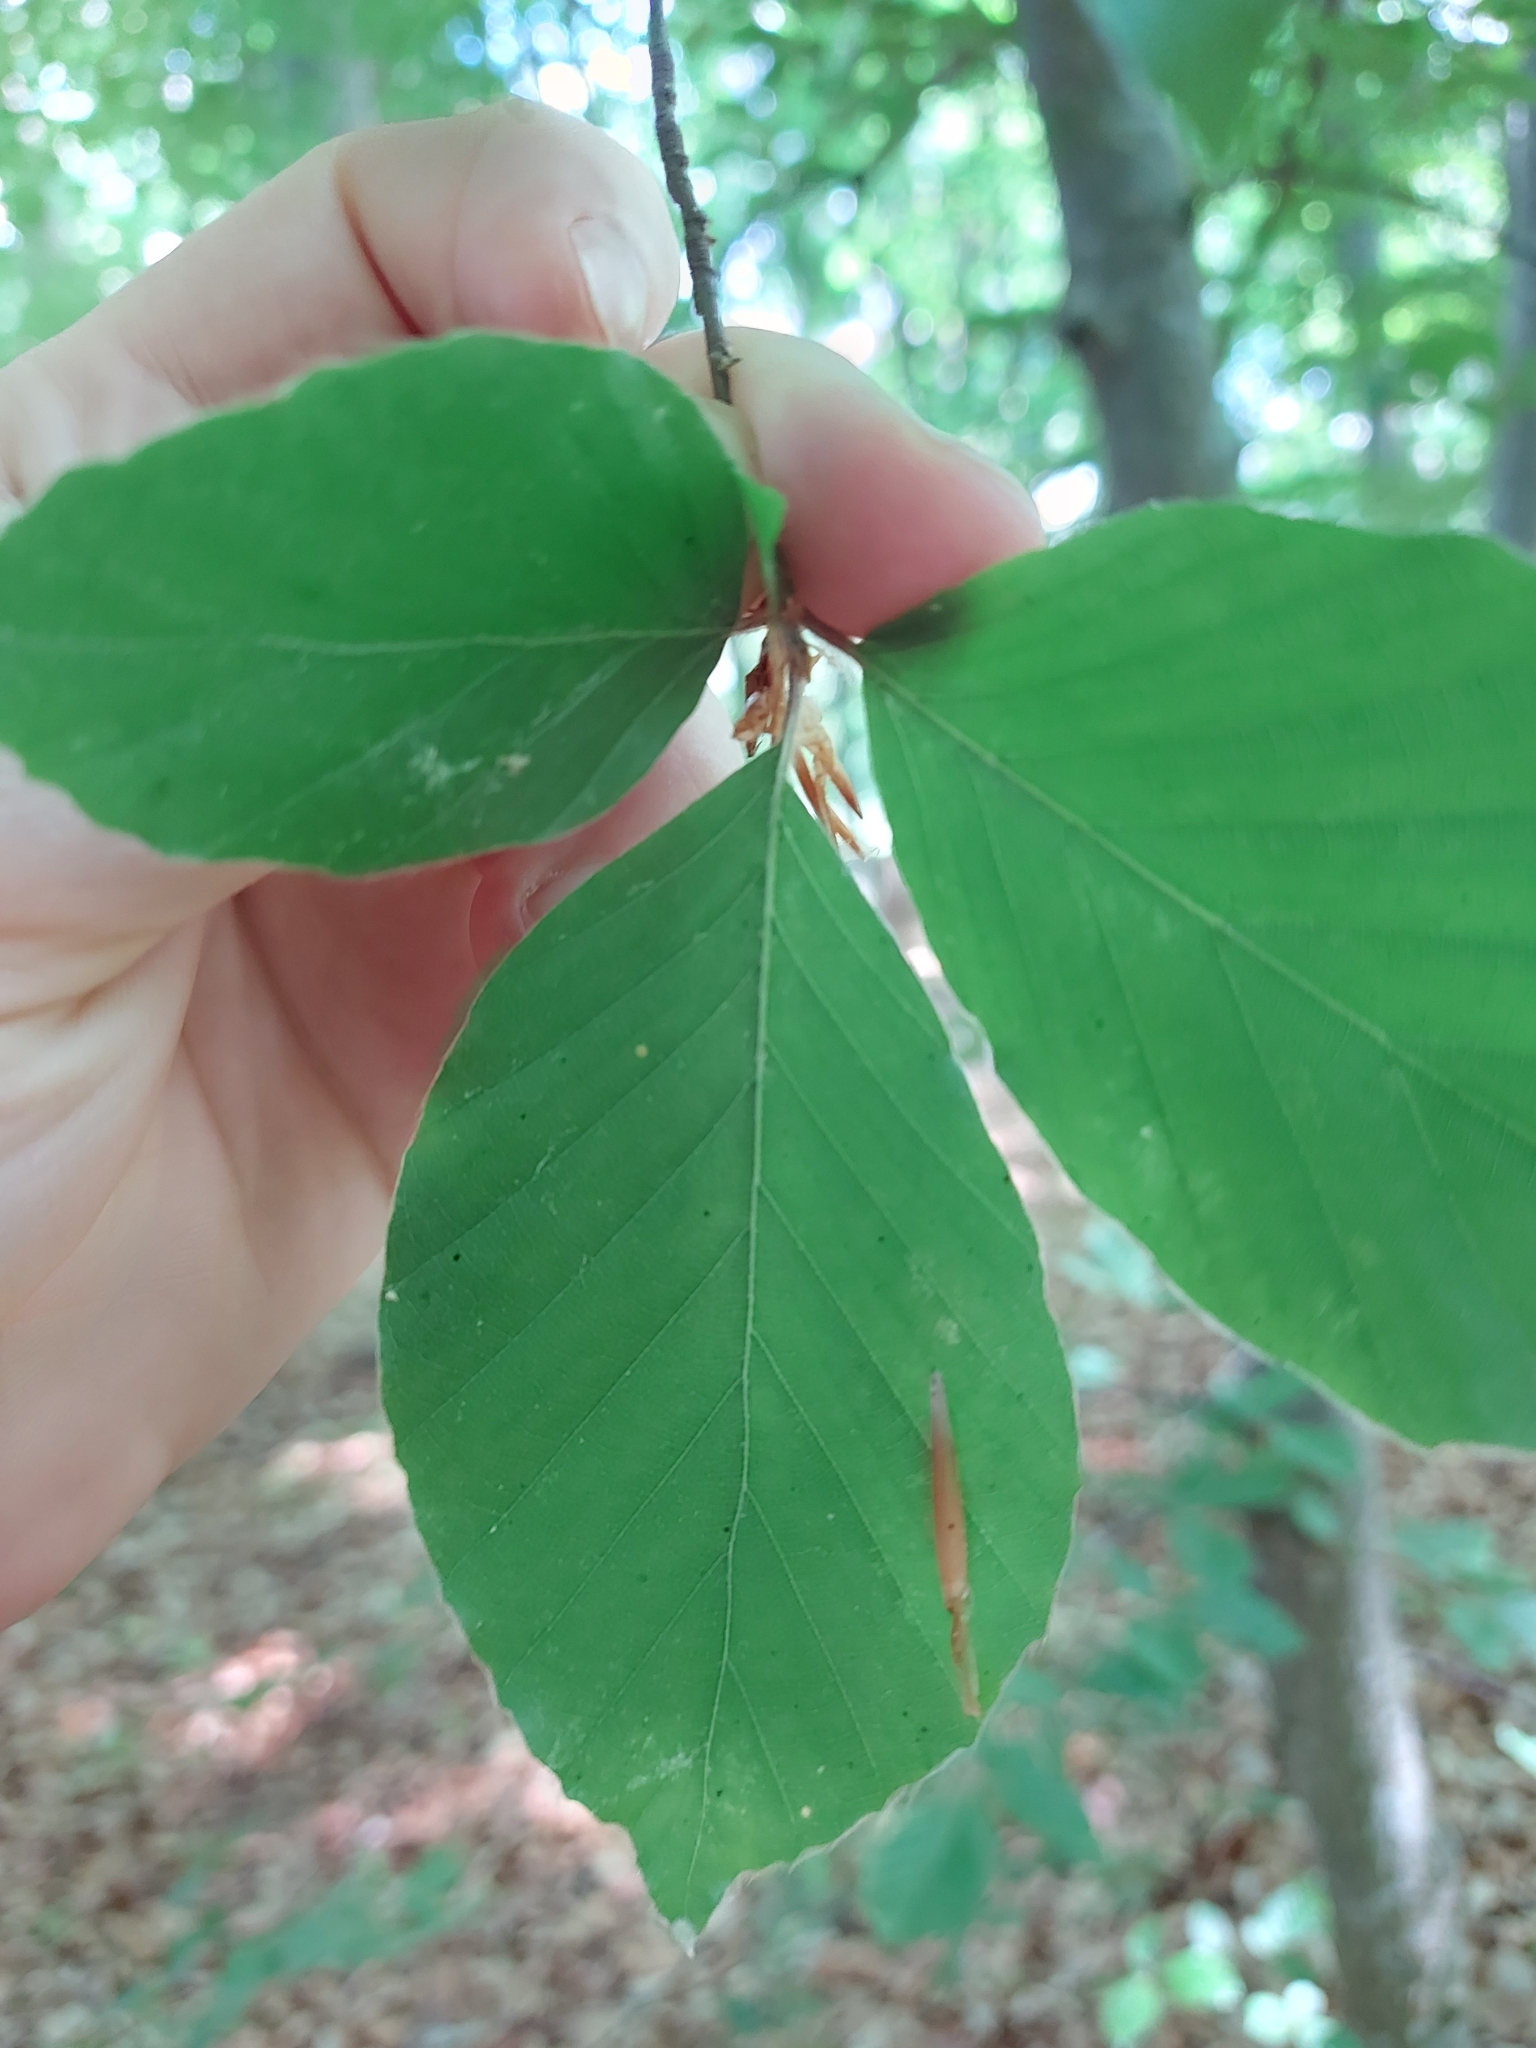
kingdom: Plantae
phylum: Tracheophyta
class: Magnoliopsida
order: Fagales
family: Fagaceae
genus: Fagus
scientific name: Fagus sylvatica
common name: Beech
